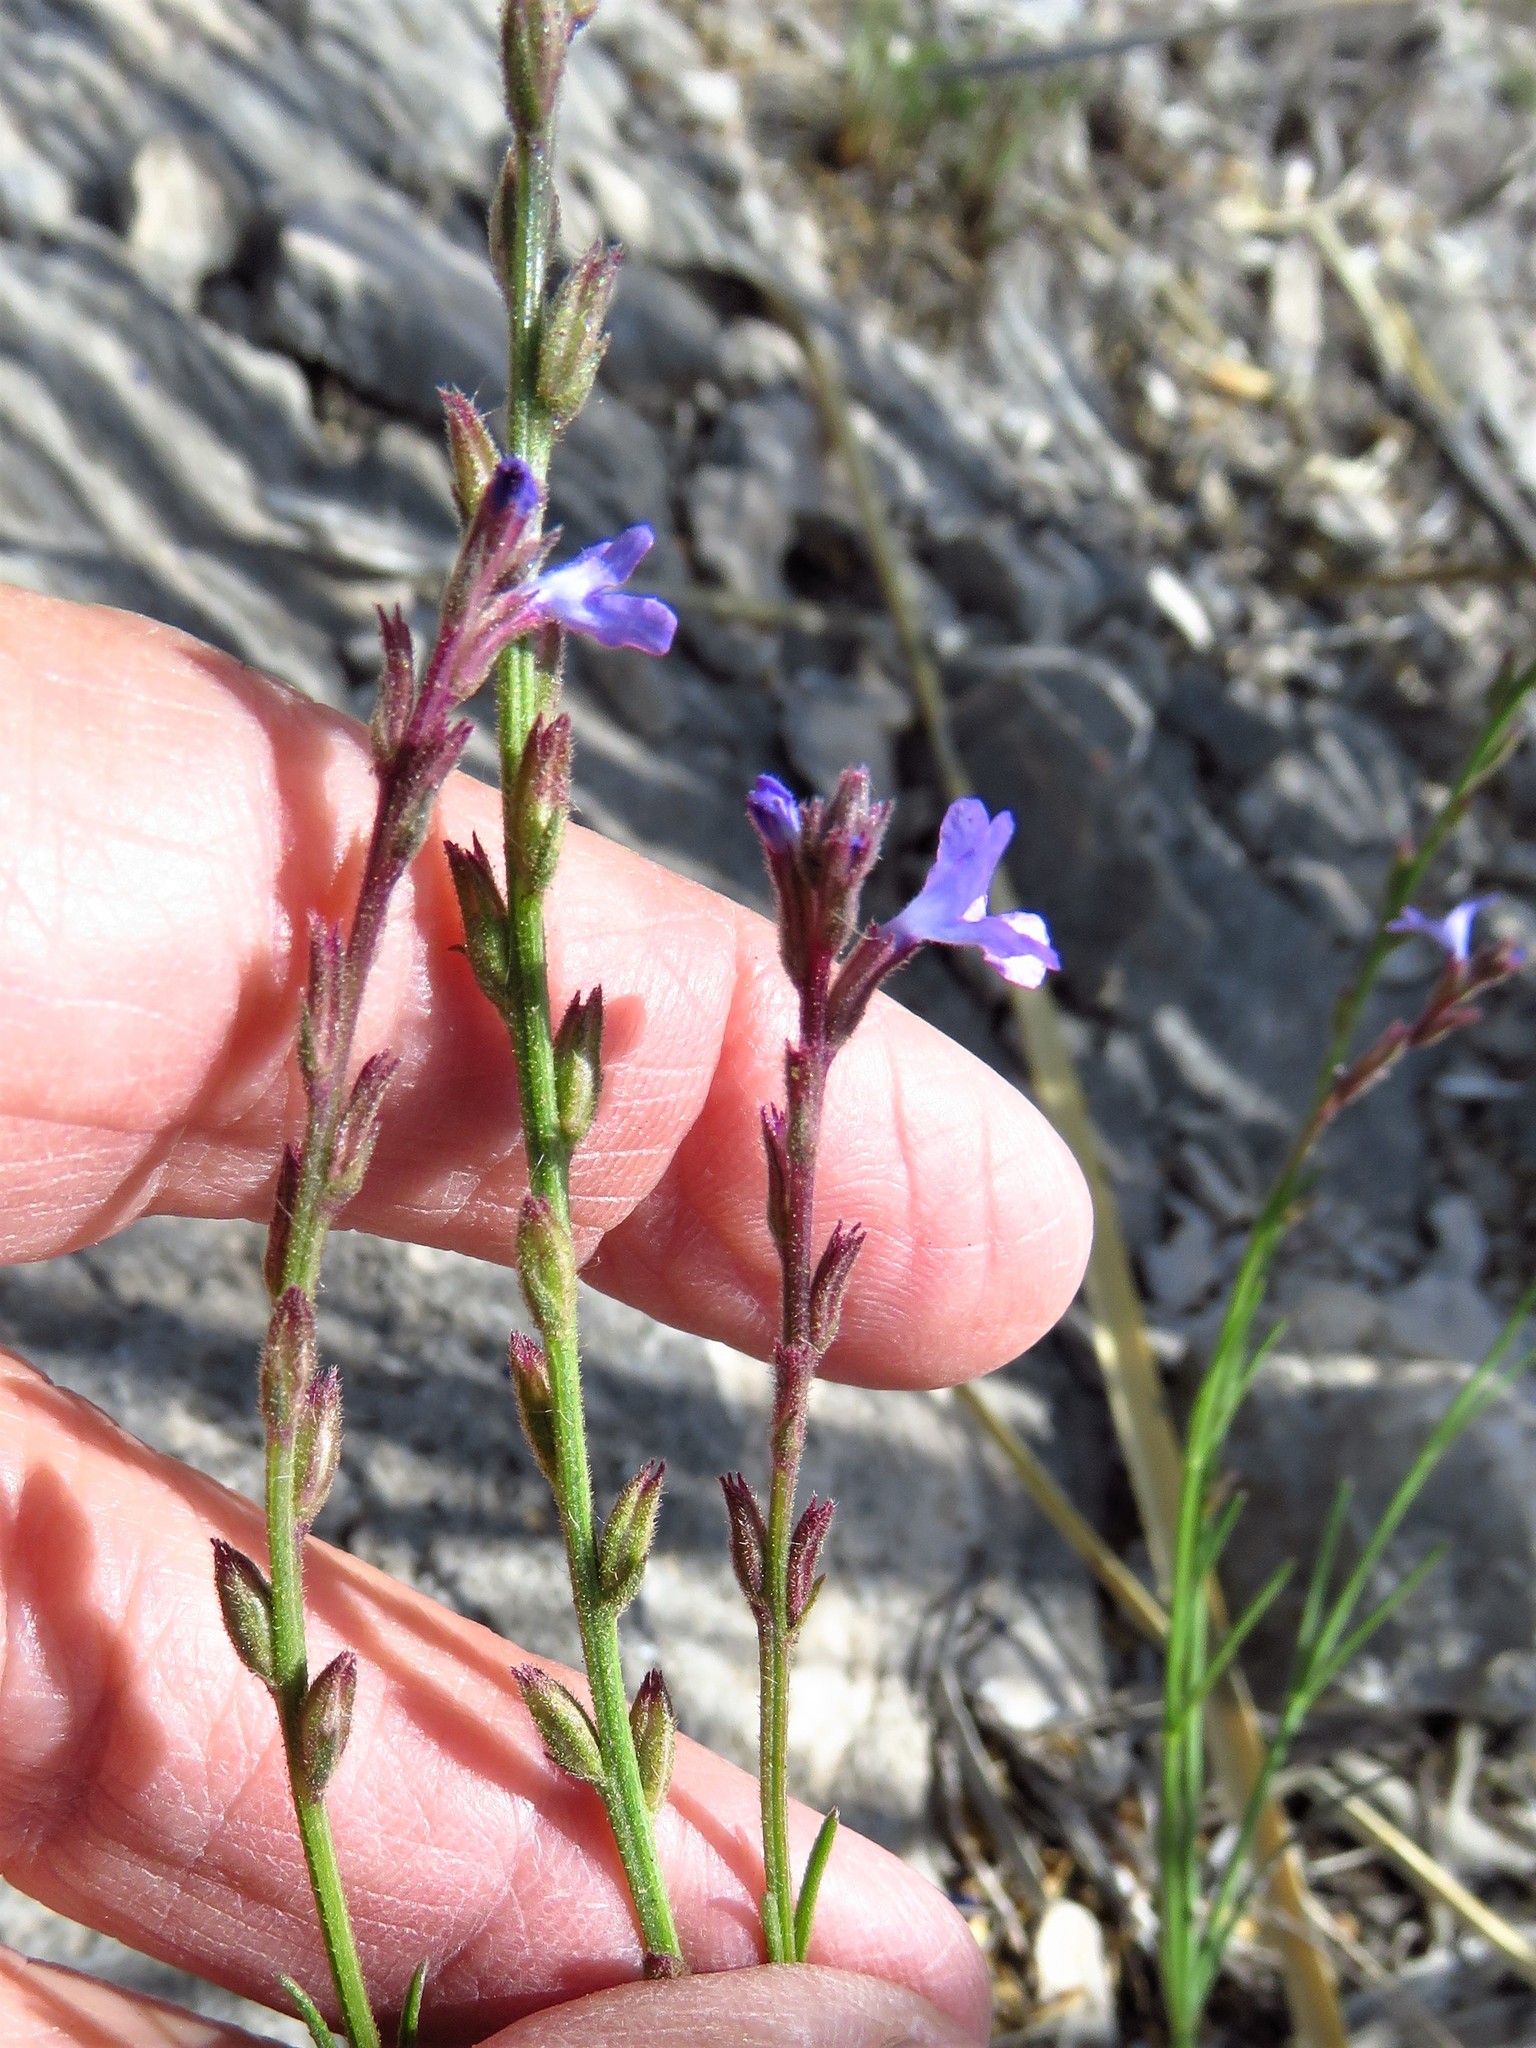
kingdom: Plantae
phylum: Tracheophyta
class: Magnoliopsida
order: Lamiales
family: Verbenaceae
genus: Verbena
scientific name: Verbena perennis
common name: Pin-leaf vervain
